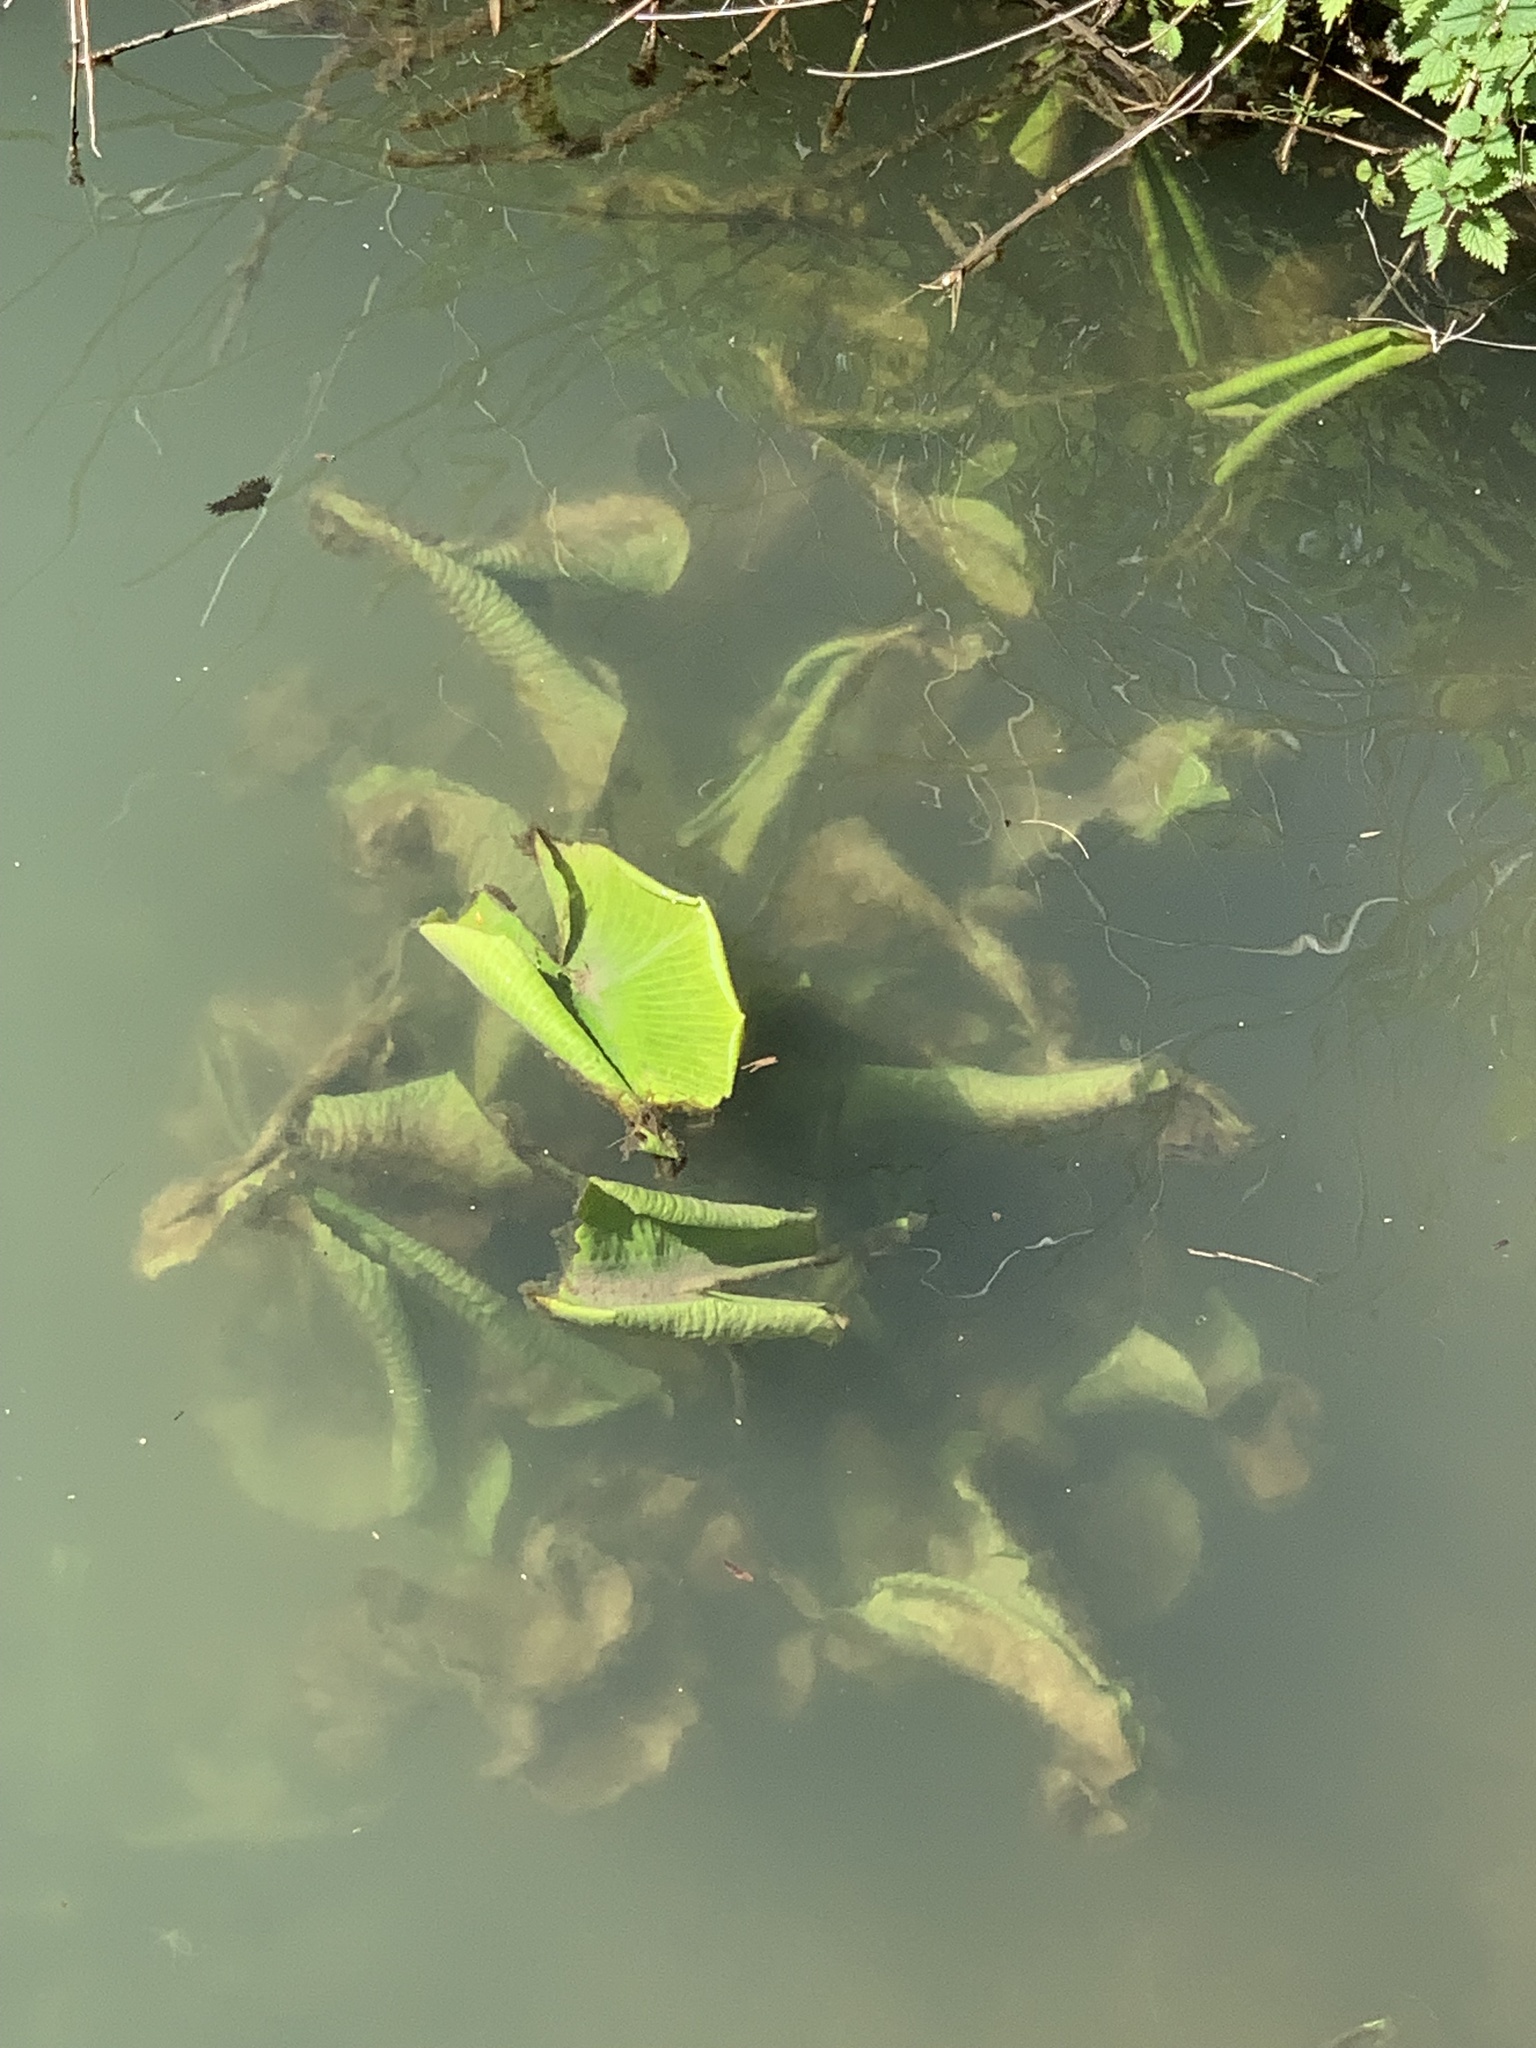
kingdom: Plantae
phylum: Tracheophyta
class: Magnoliopsida
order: Nymphaeales
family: Nymphaeaceae
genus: Nuphar
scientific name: Nuphar lutea
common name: Yellow water-lily
